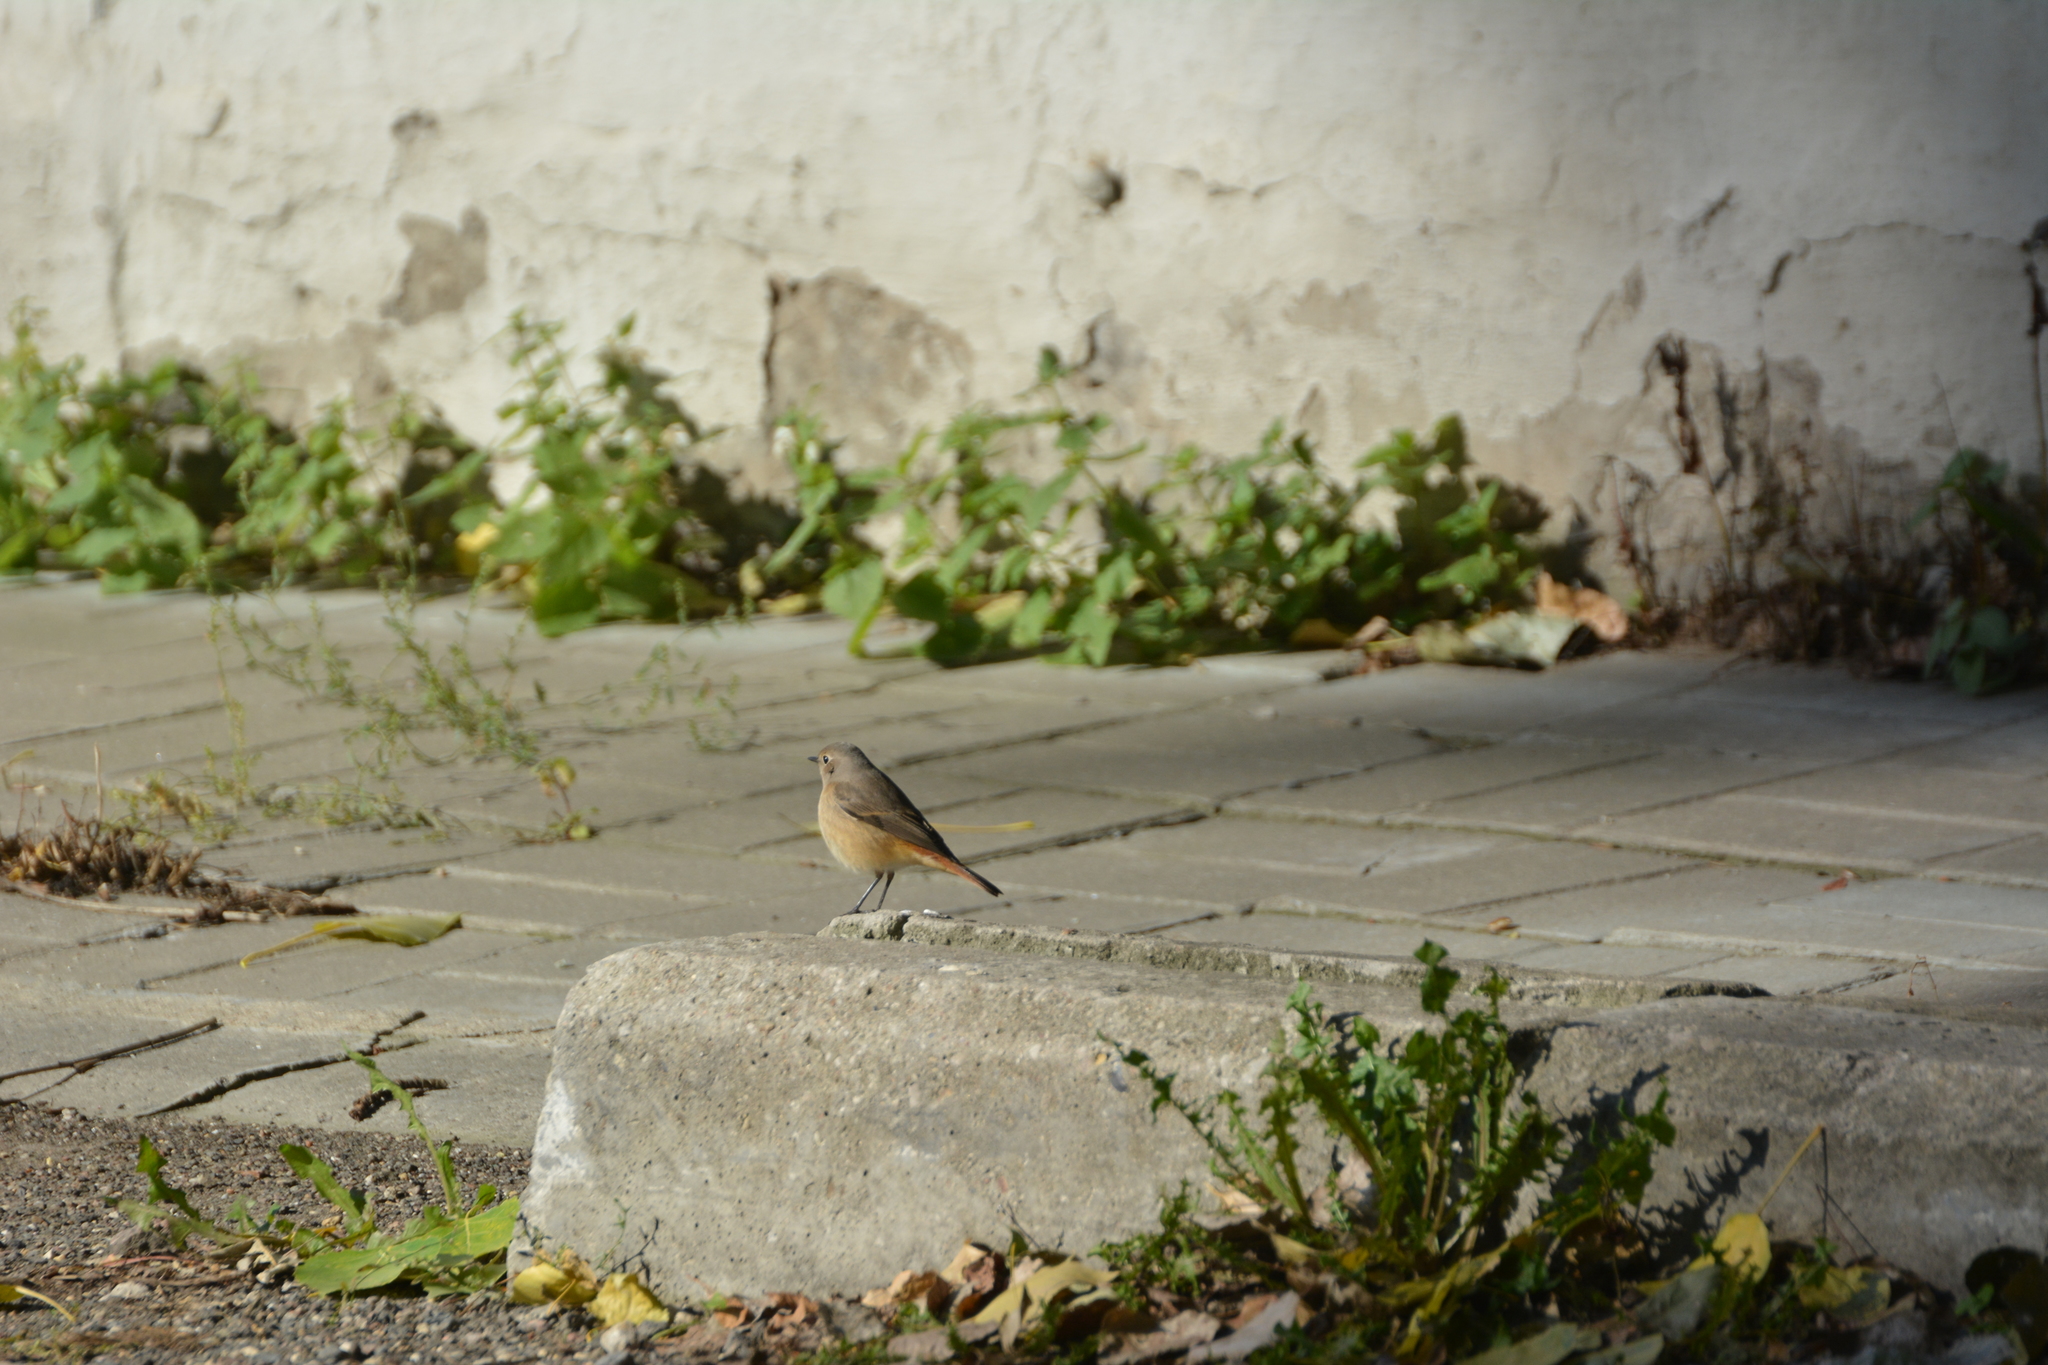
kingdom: Animalia
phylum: Chordata
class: Aves
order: Passeriformes
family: Muscicapidae
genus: Phoenicurus
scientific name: Phoenicurus phoenicurus
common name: Common redstart
